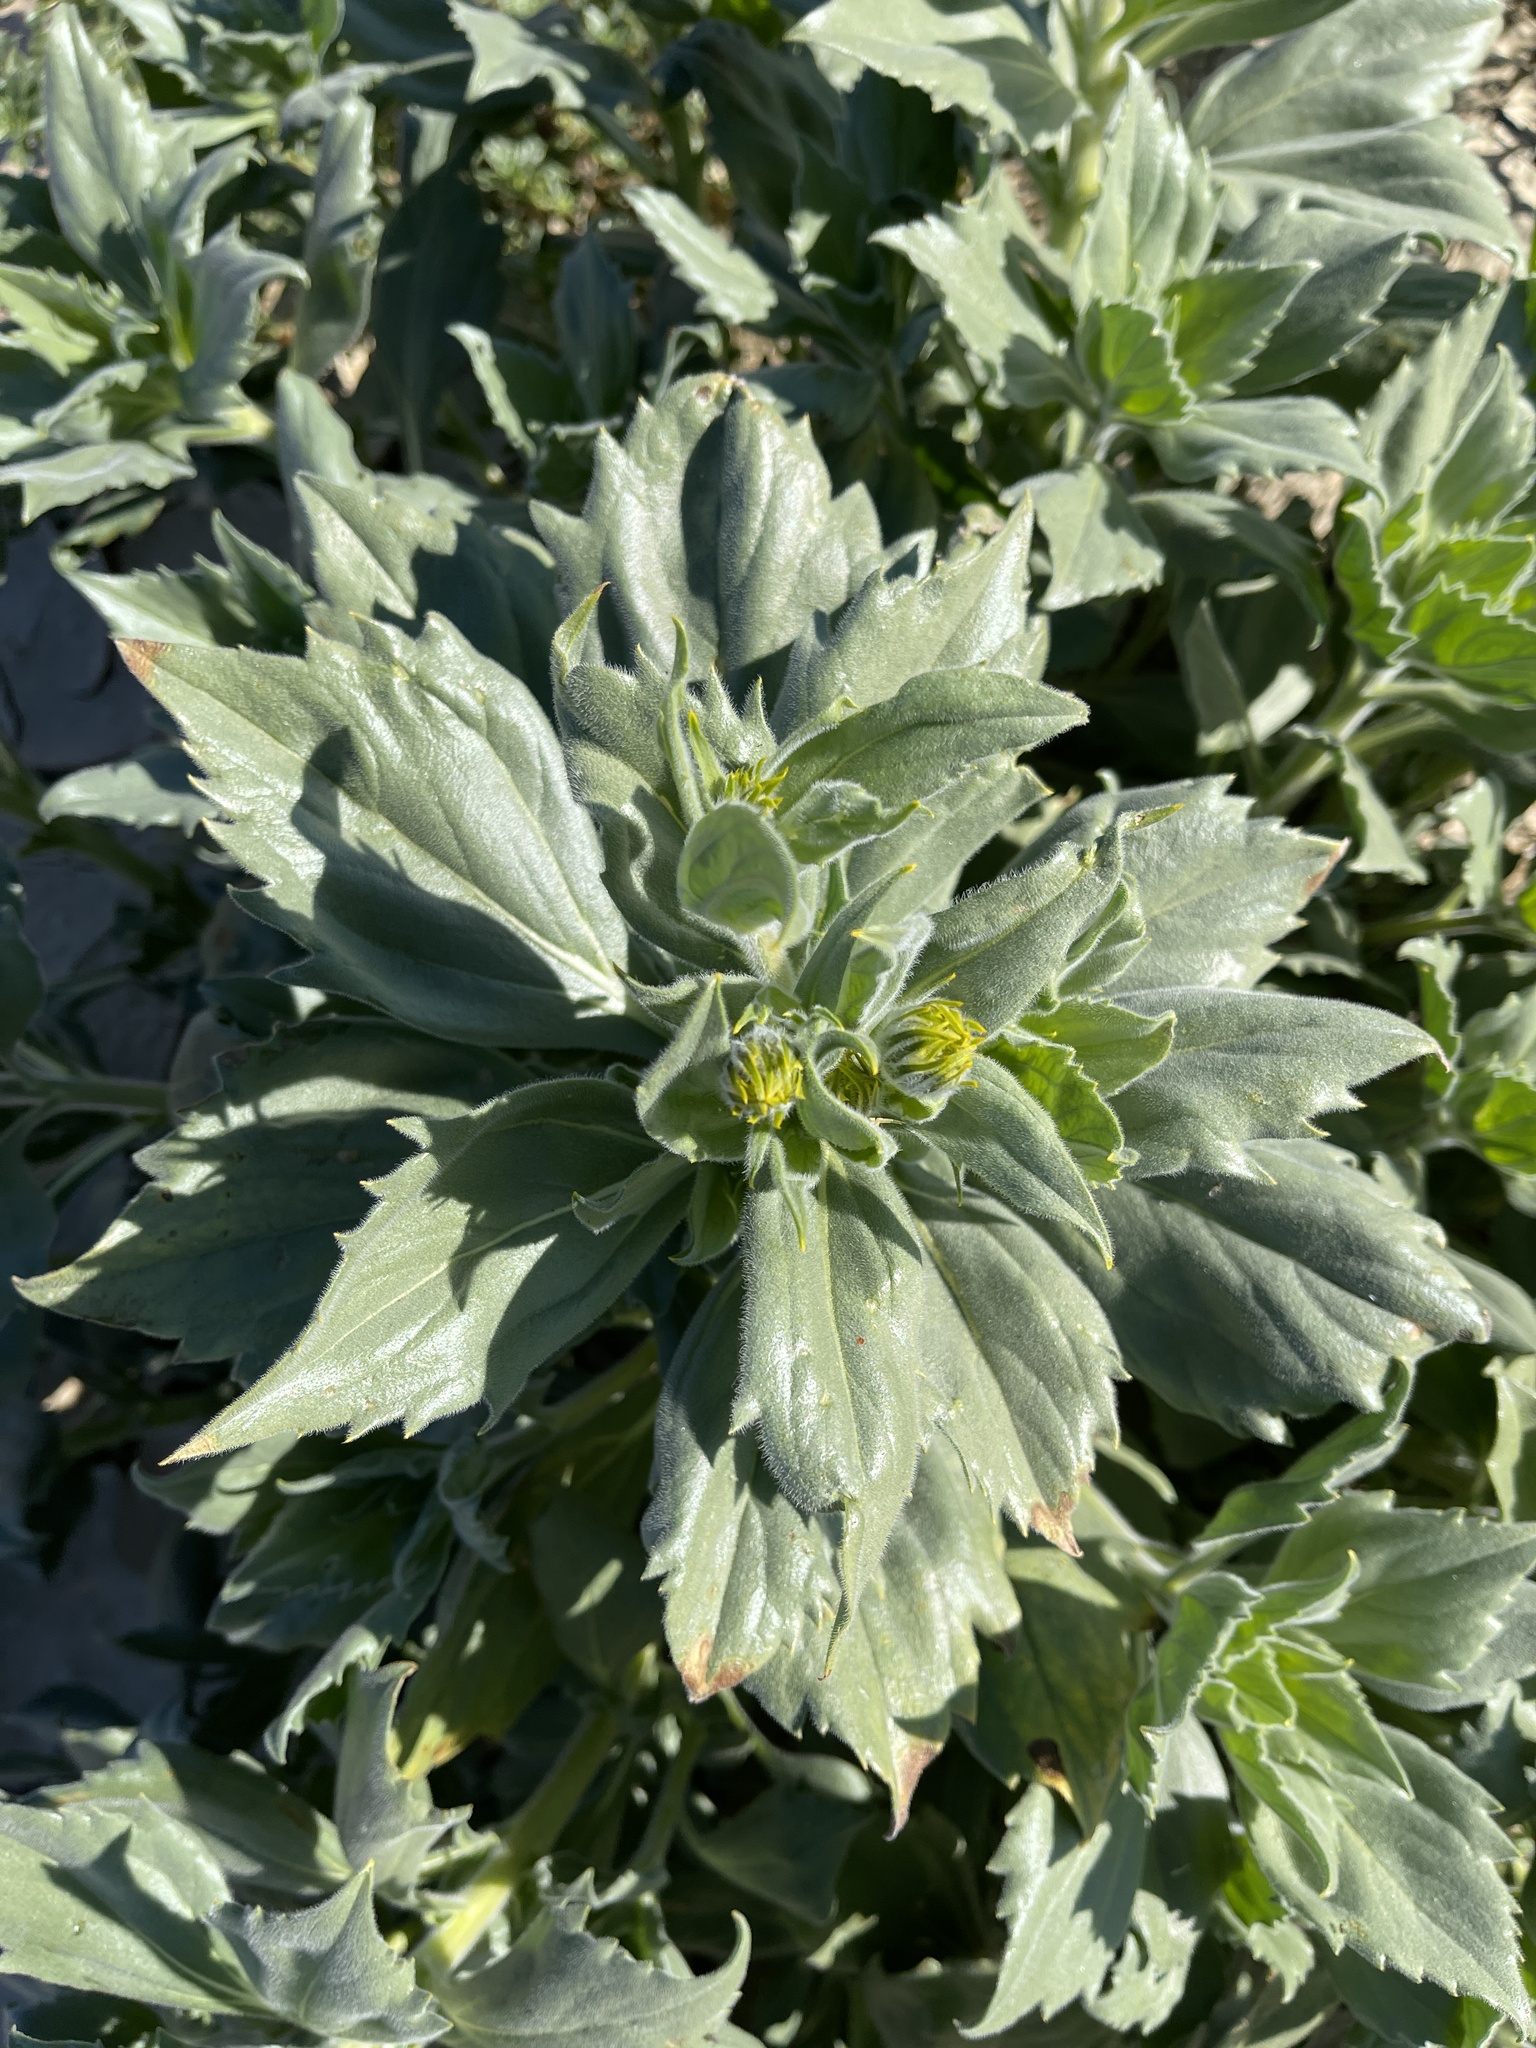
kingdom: Plantae
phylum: Tracheophyta
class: Magnoliopsida
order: Asterales
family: Asteraceae
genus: Geraea
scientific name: Geraea canescens
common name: Desert-gold
